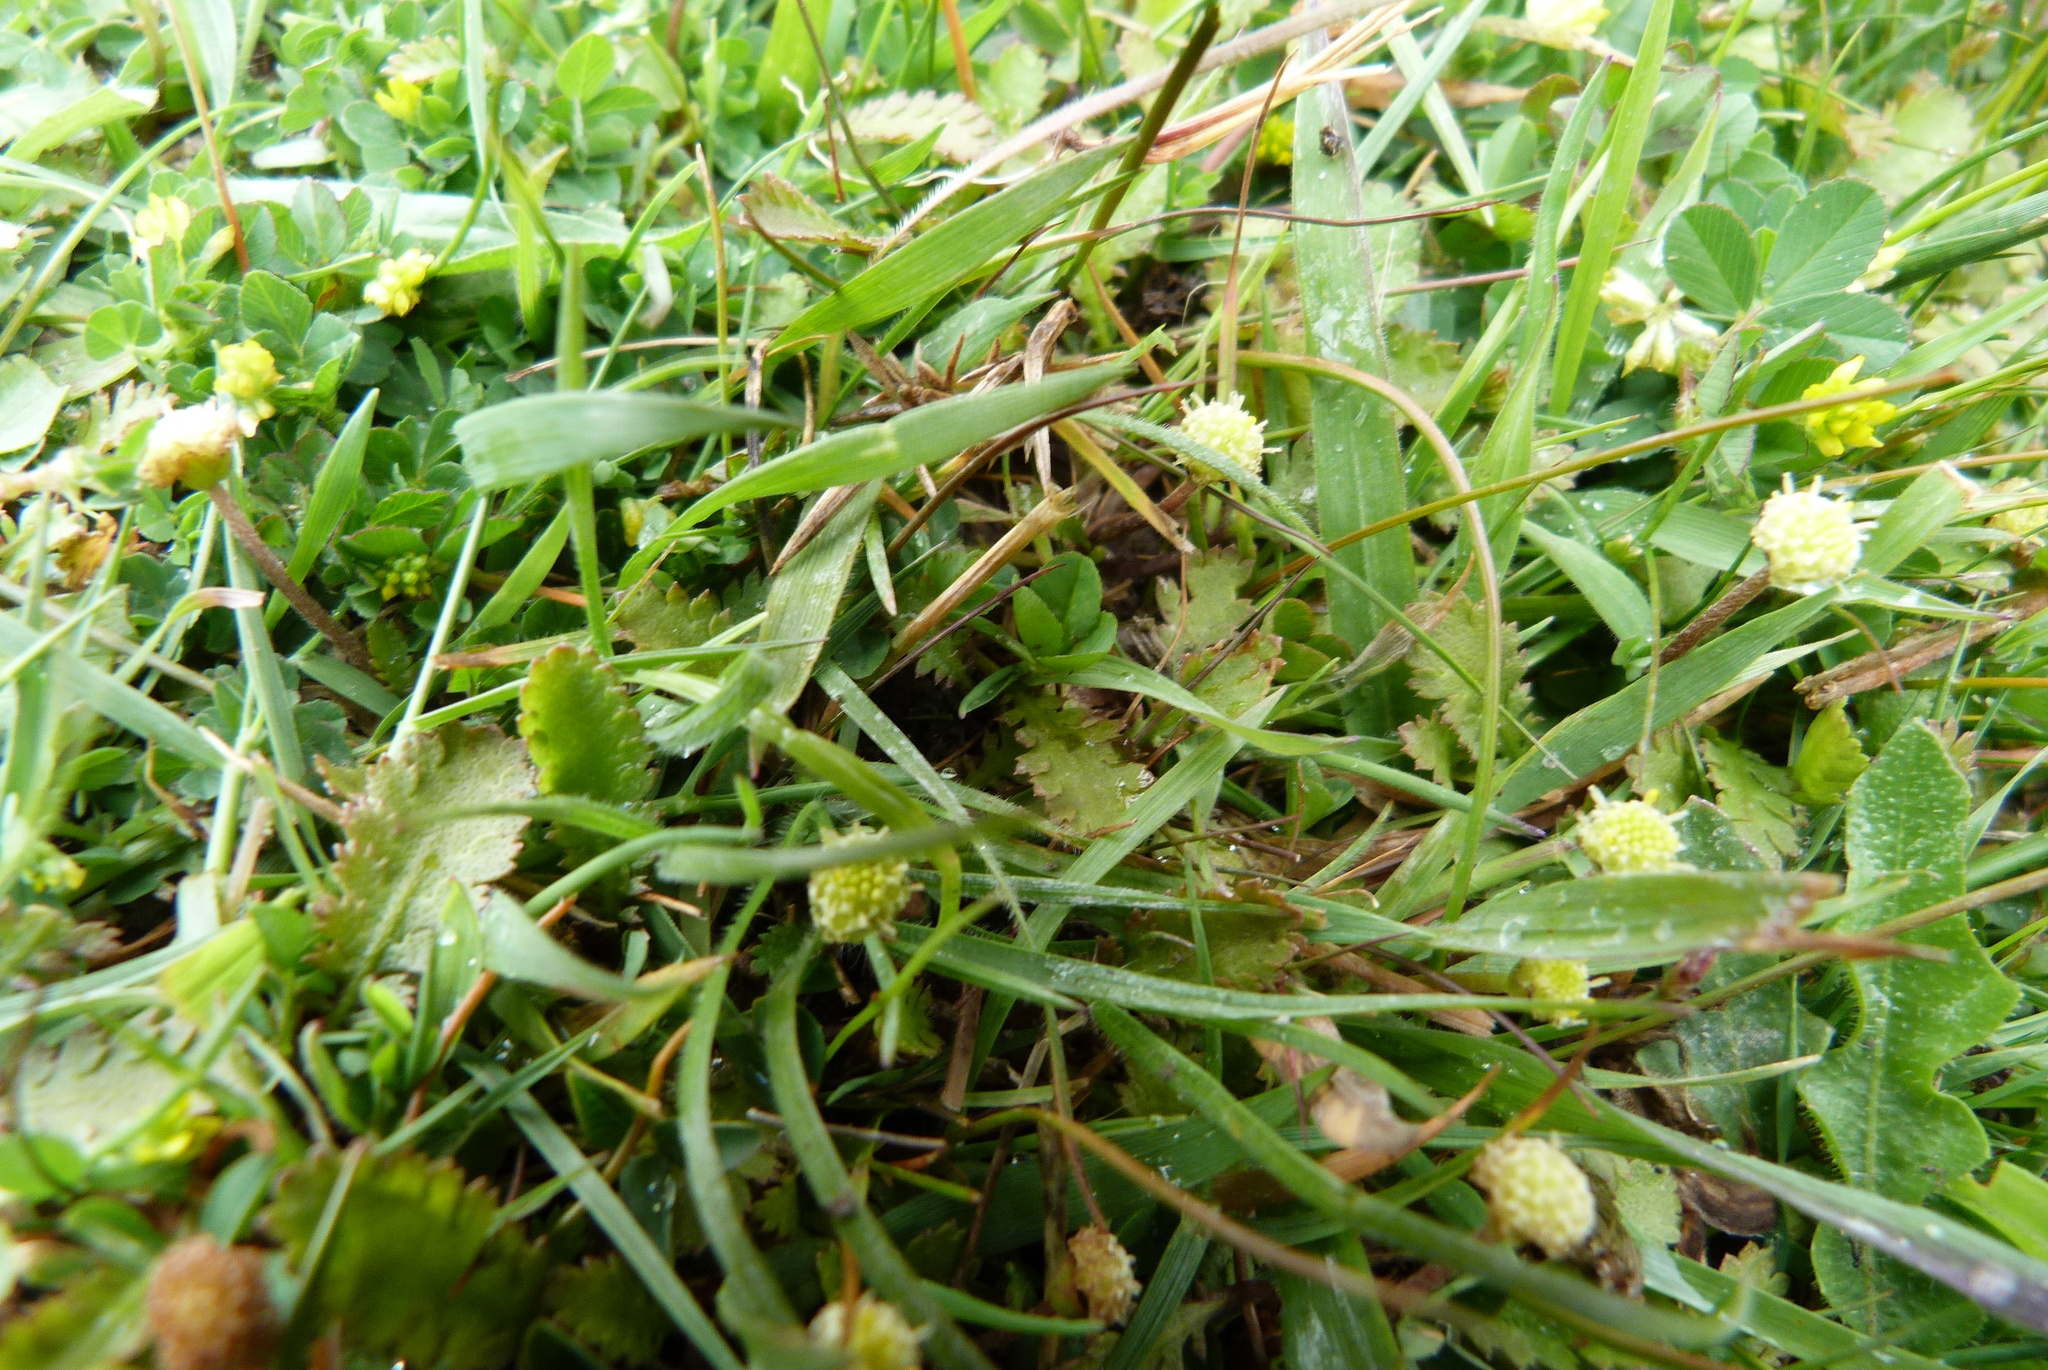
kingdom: Plantae
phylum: Tracheophyta
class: Magnoliopsida
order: Asterales
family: Asteraceae
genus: Leptinella
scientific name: Leptinella squalida
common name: New zealand brass-buttons
